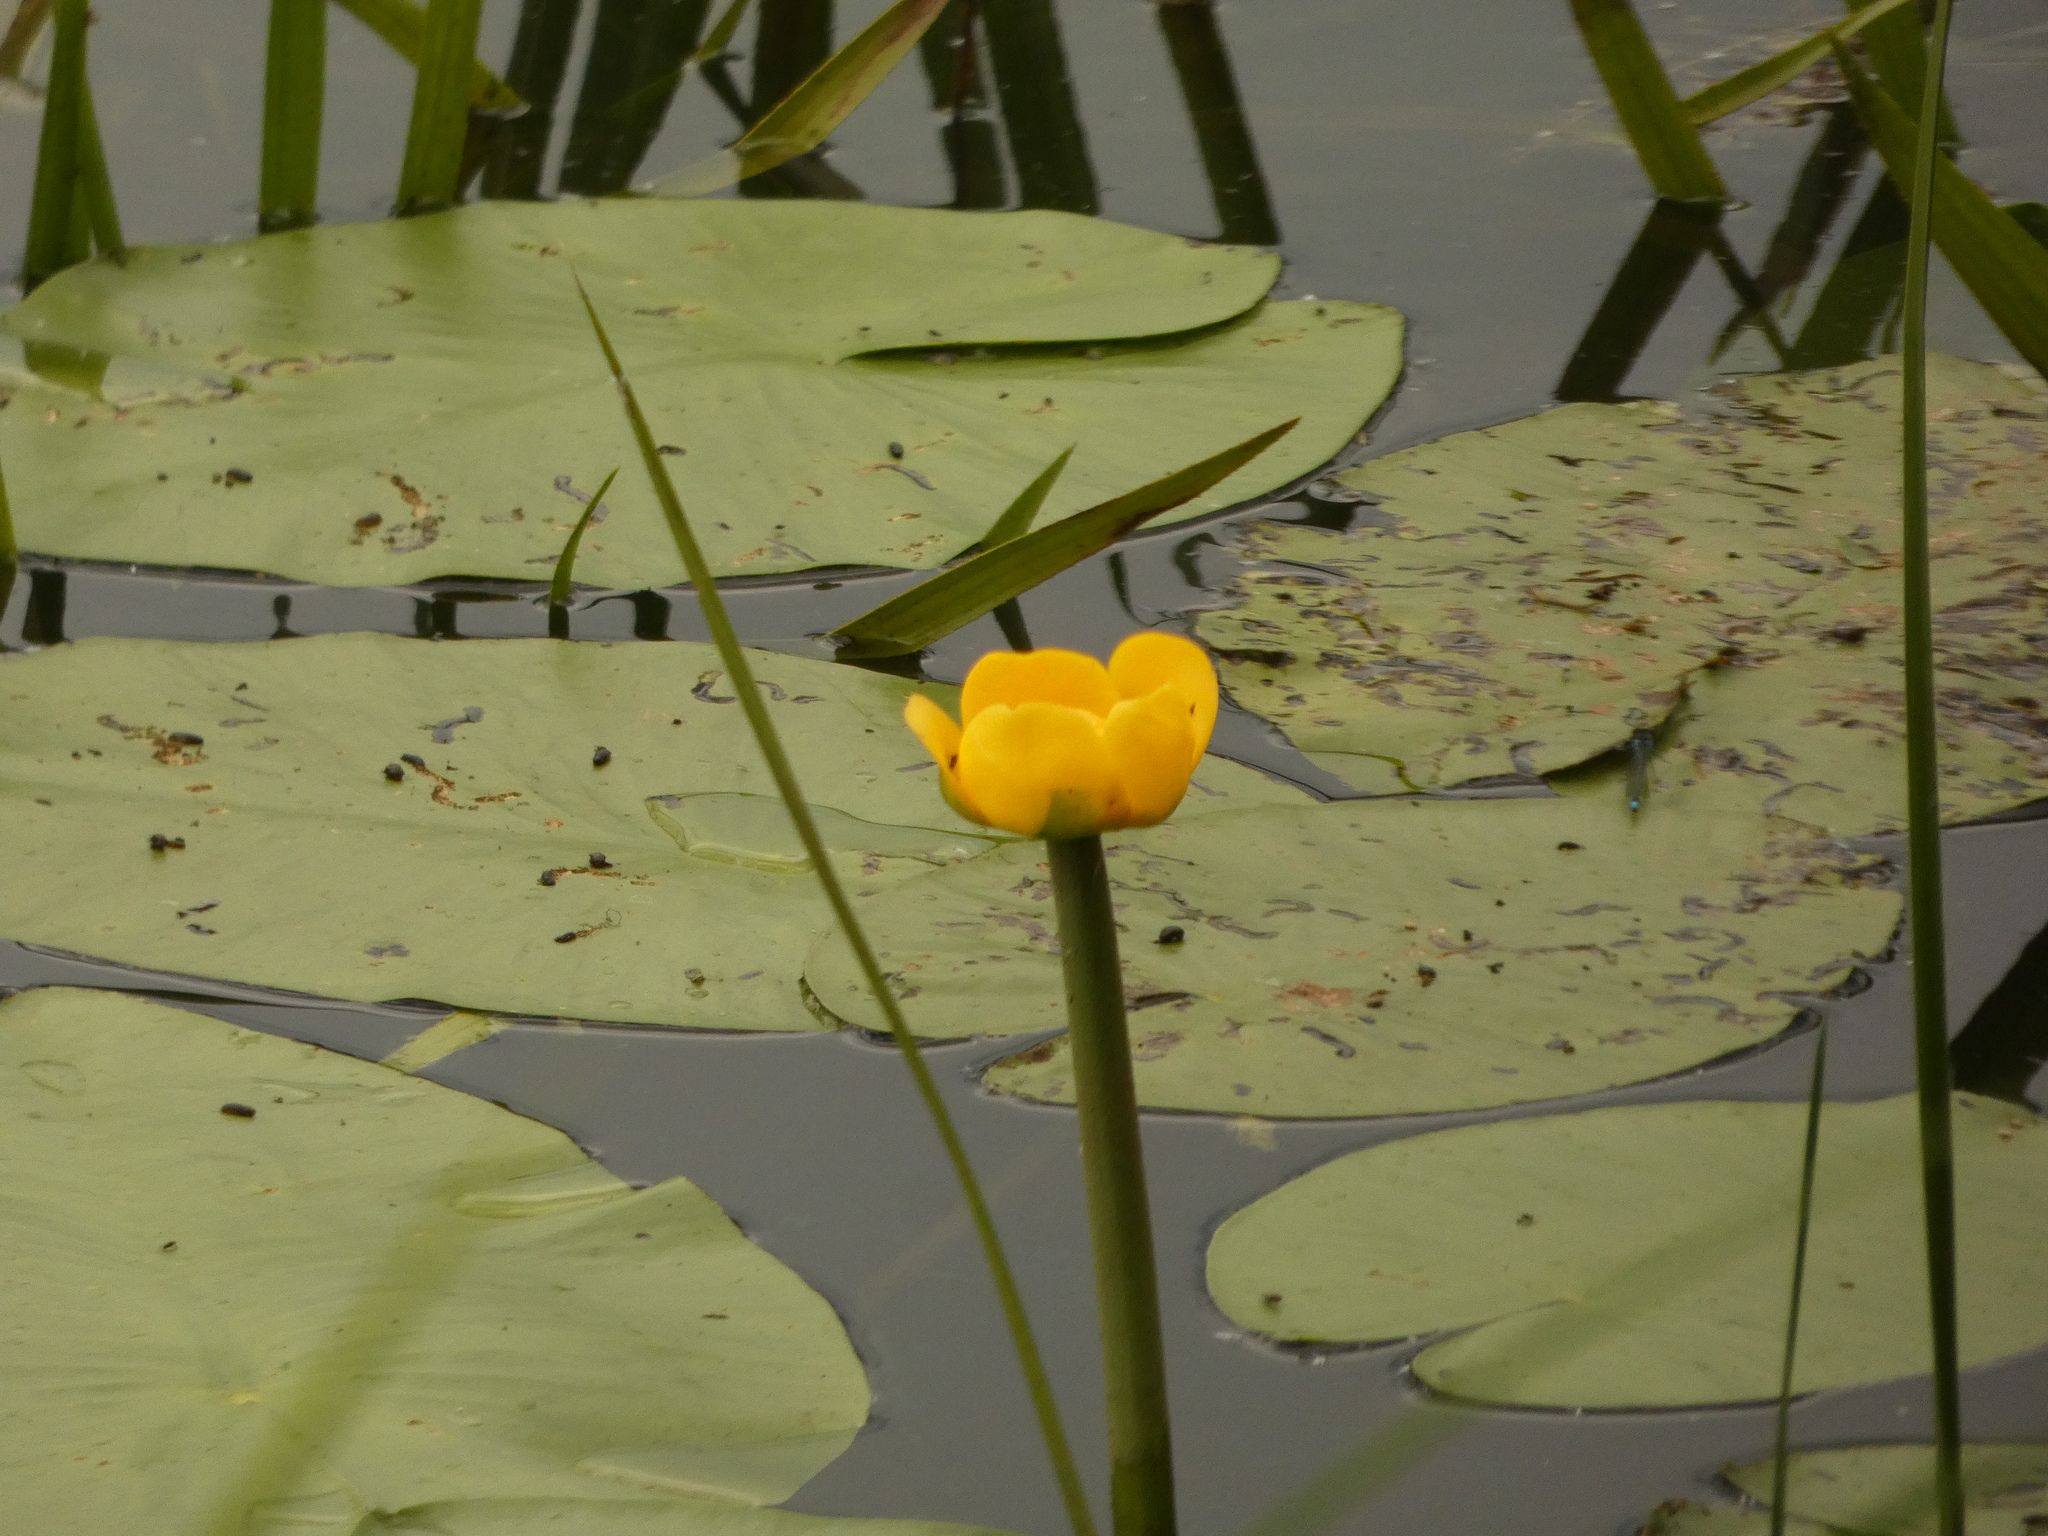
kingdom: Plantae
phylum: Tracheophyta
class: Magnoliopsida
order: Nymphaeales
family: Nymphaeaceae
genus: Nuphar
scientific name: Nuphar lutea
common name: Yellow water-lily
